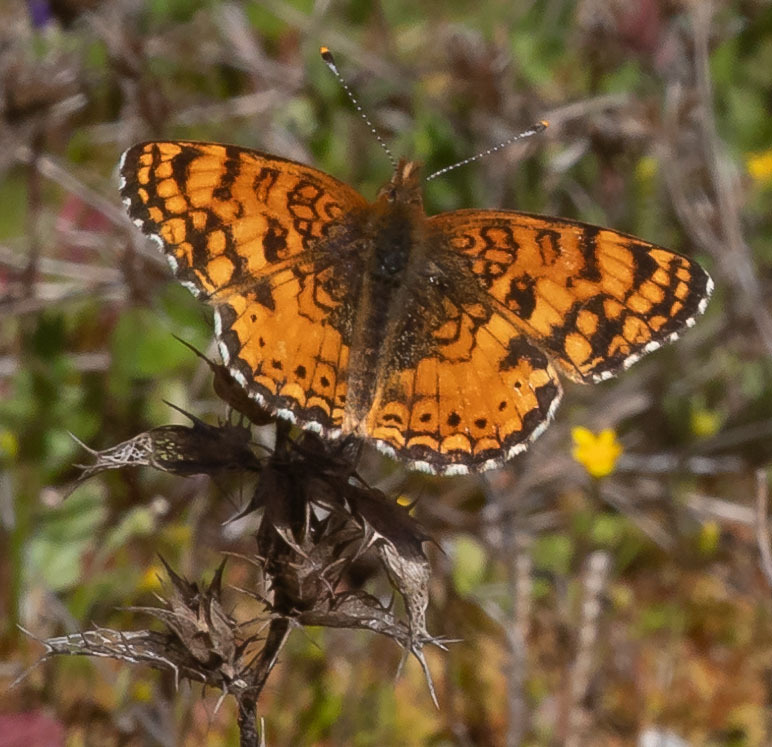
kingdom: Animalia
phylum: Arthropoda
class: Insecta
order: Lepidoptera
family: Nymphalidae
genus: Eresia
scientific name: Eresia aveyrona
